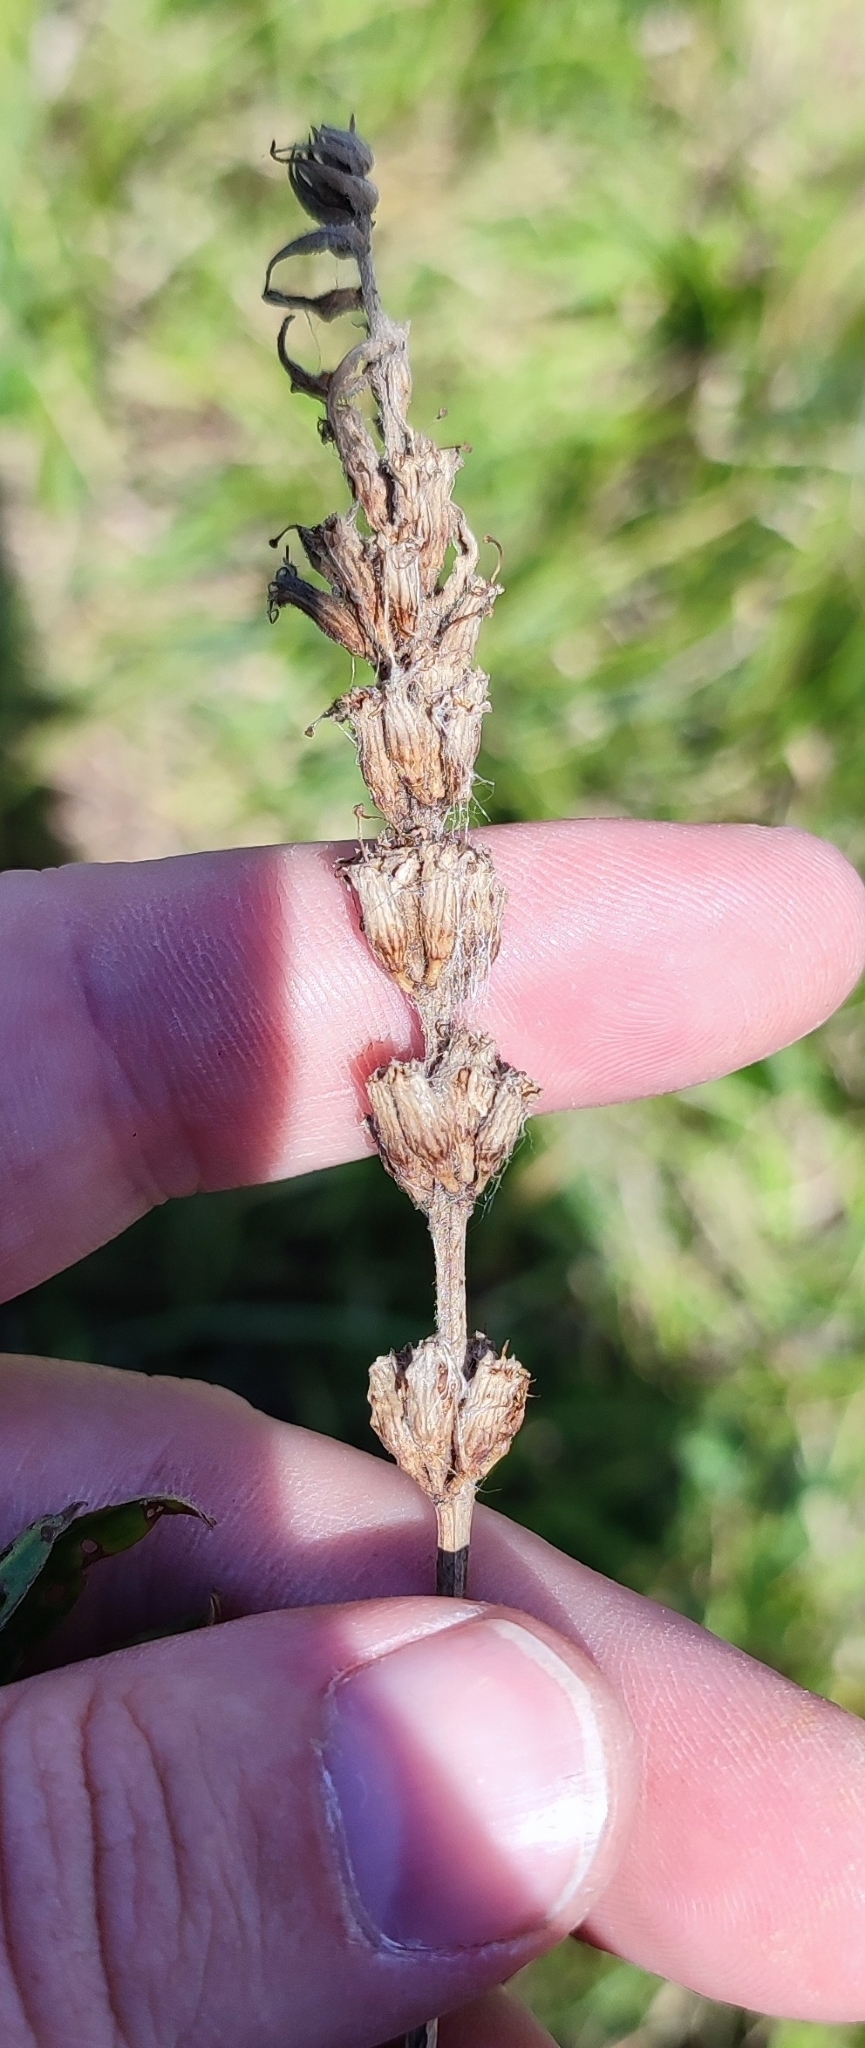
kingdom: Plantae
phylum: Tracheophyta
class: Magnoliopsida
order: Myrtales
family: Lythraceae
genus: Lythrum
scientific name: Lythrum salicaria
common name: Purple loosestrife
